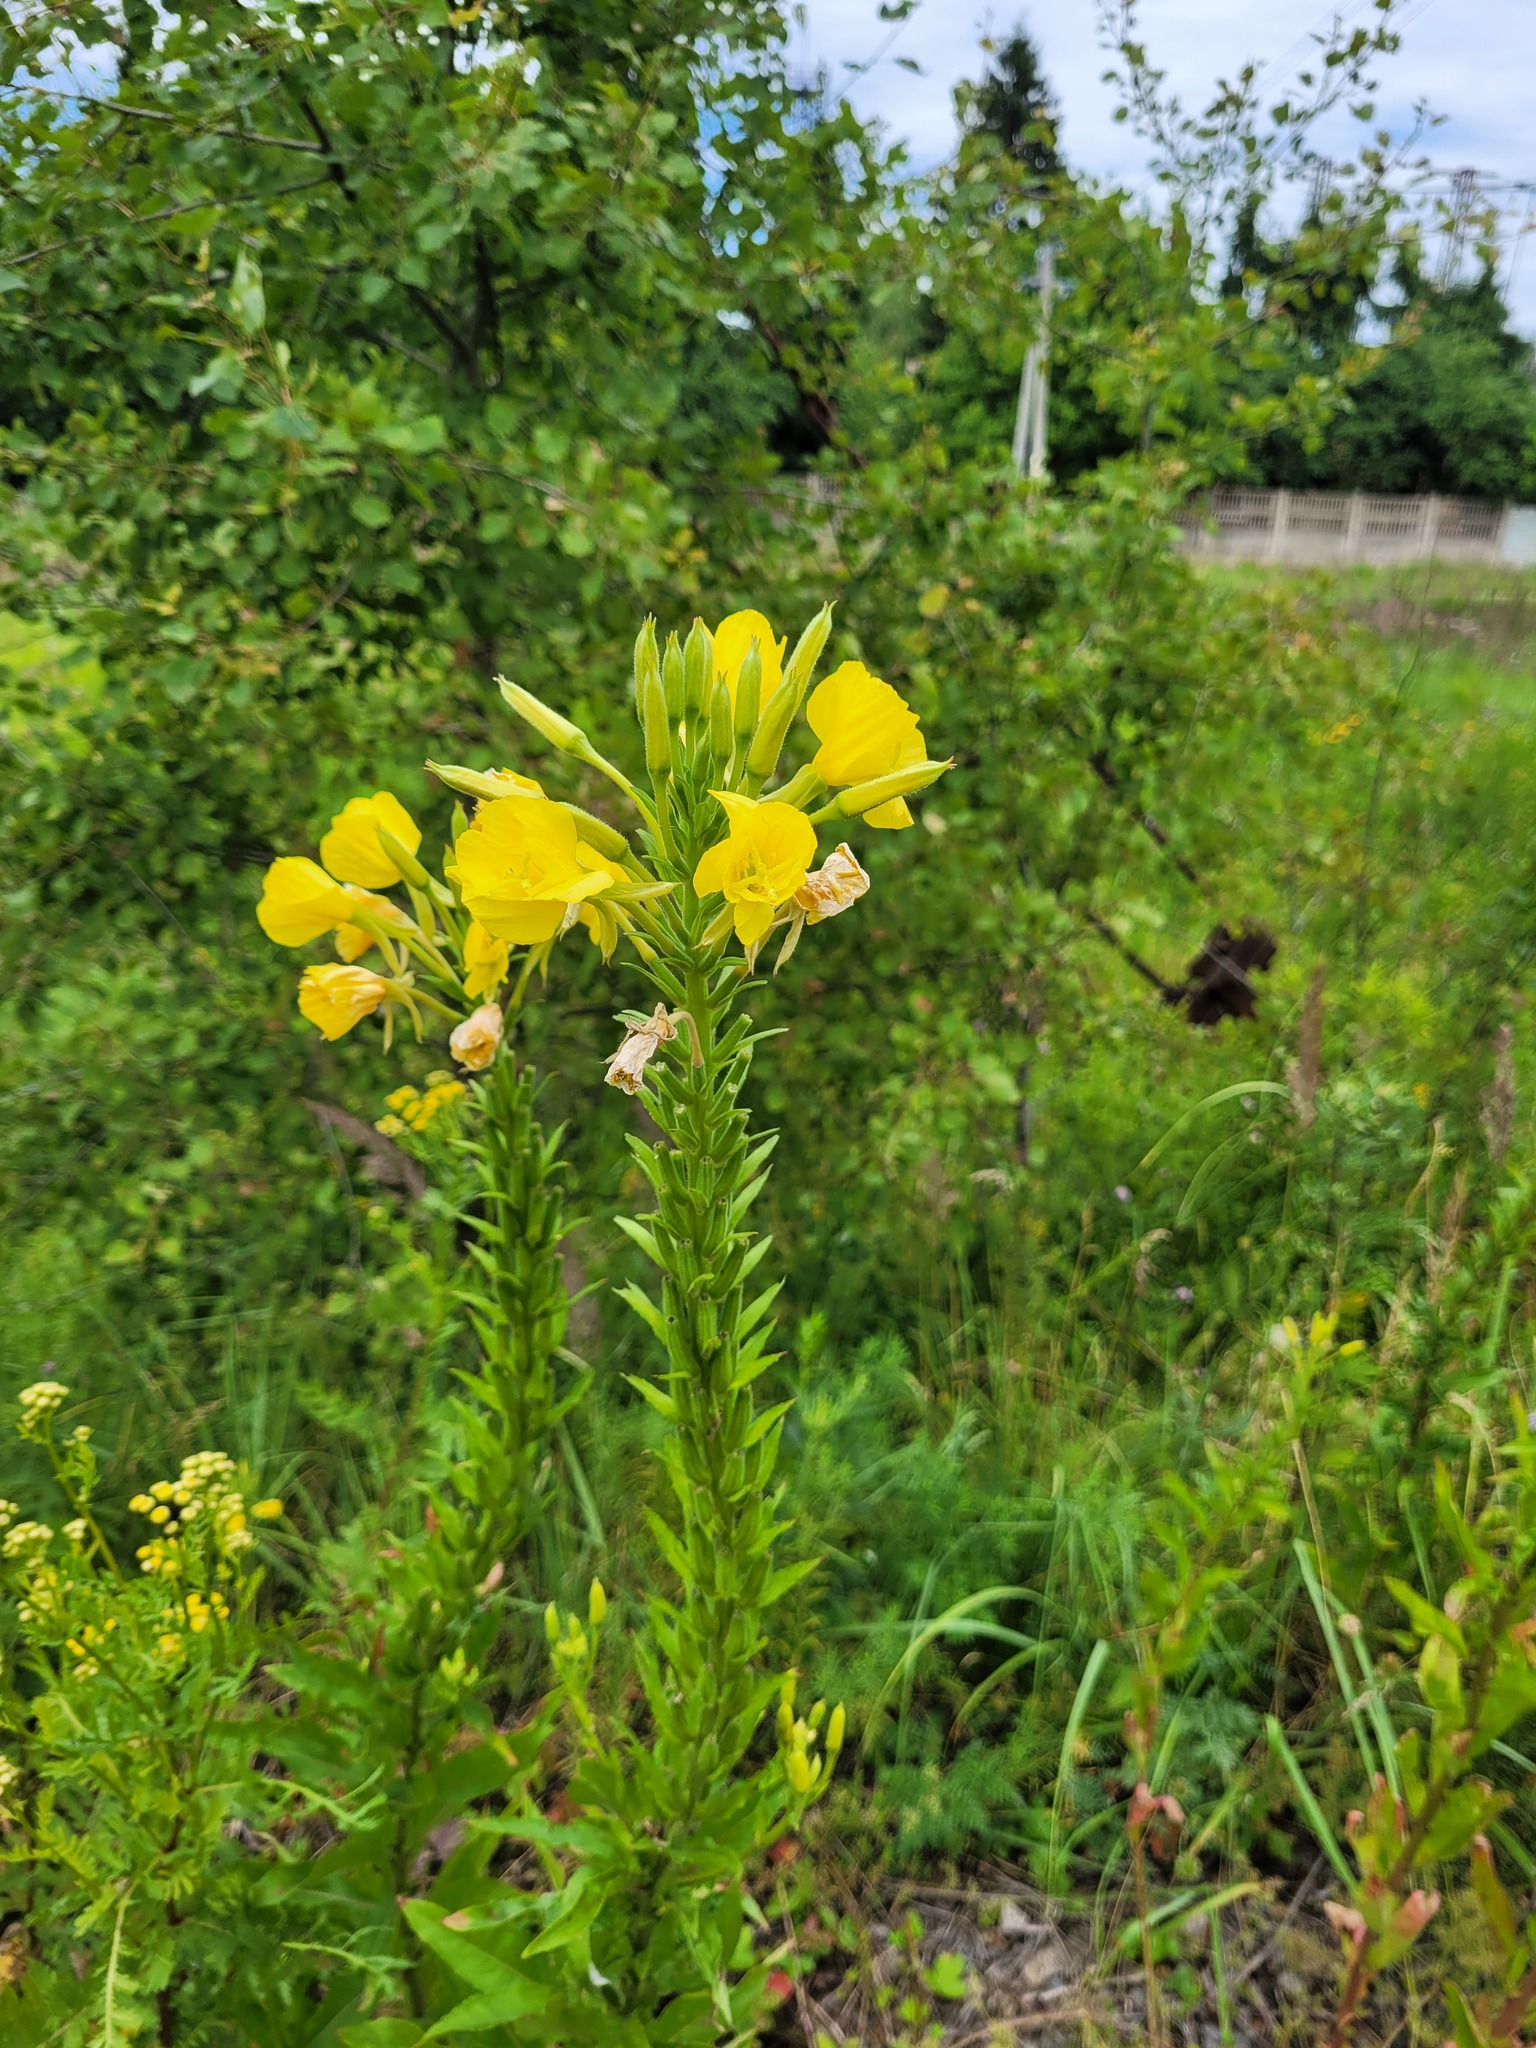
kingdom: Plantae
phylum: Tracheophyta
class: Magnoliopsida
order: Myrtales
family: Onagraceae
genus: Oenothera
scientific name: Oenothera biennis
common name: Common evening-primrose
